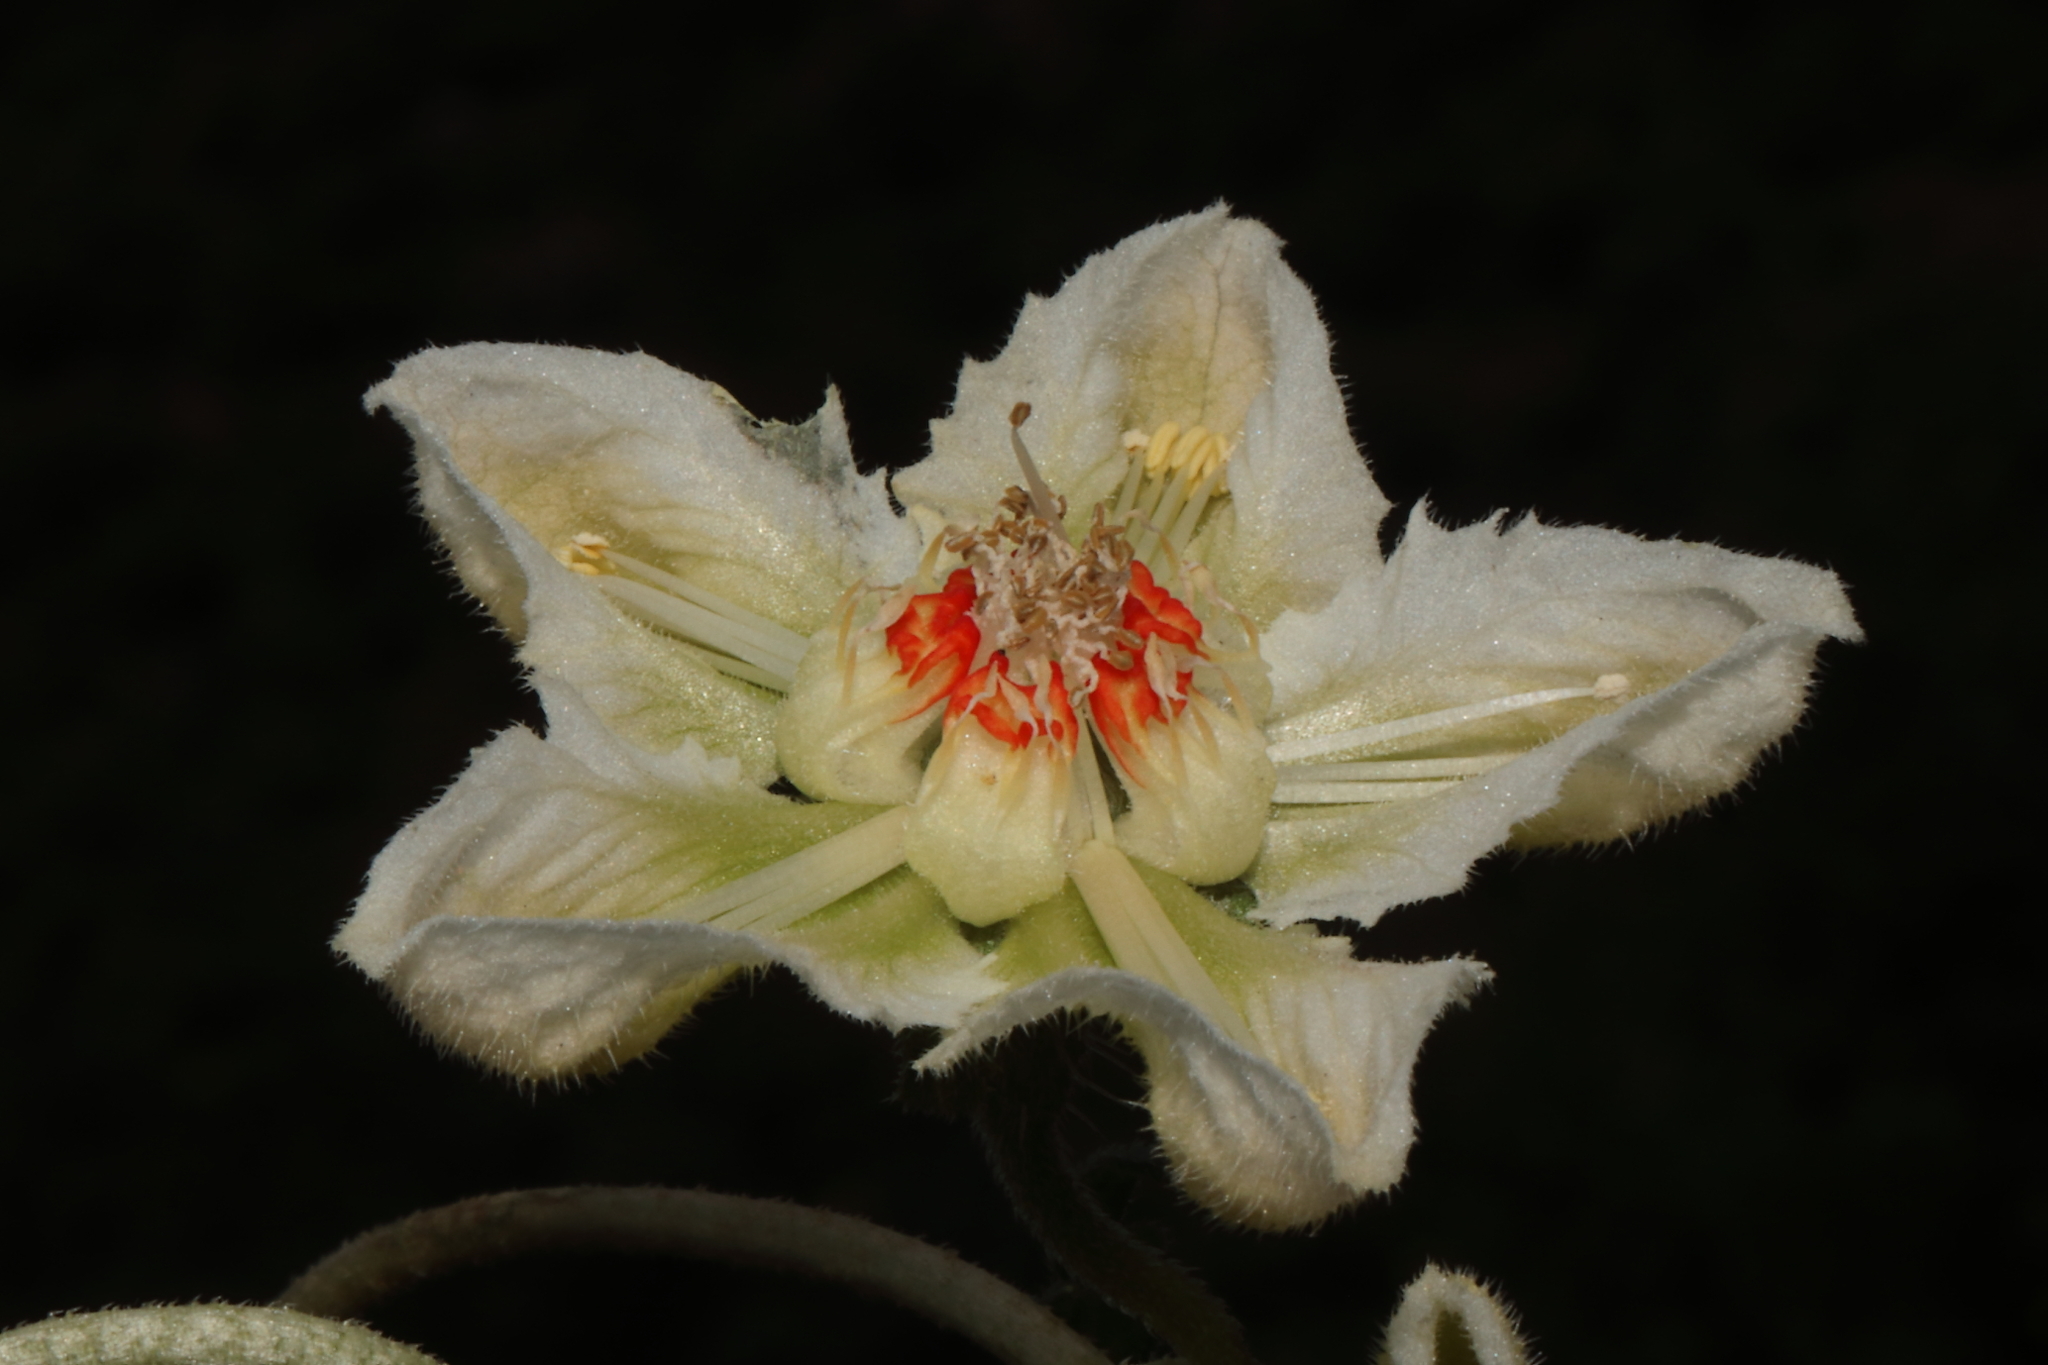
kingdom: Plantae
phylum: Tracheophyta
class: Magnoliopsida
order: Cornales
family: Loasaceae
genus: Caiophora
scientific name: Caiophora dederichiorum
